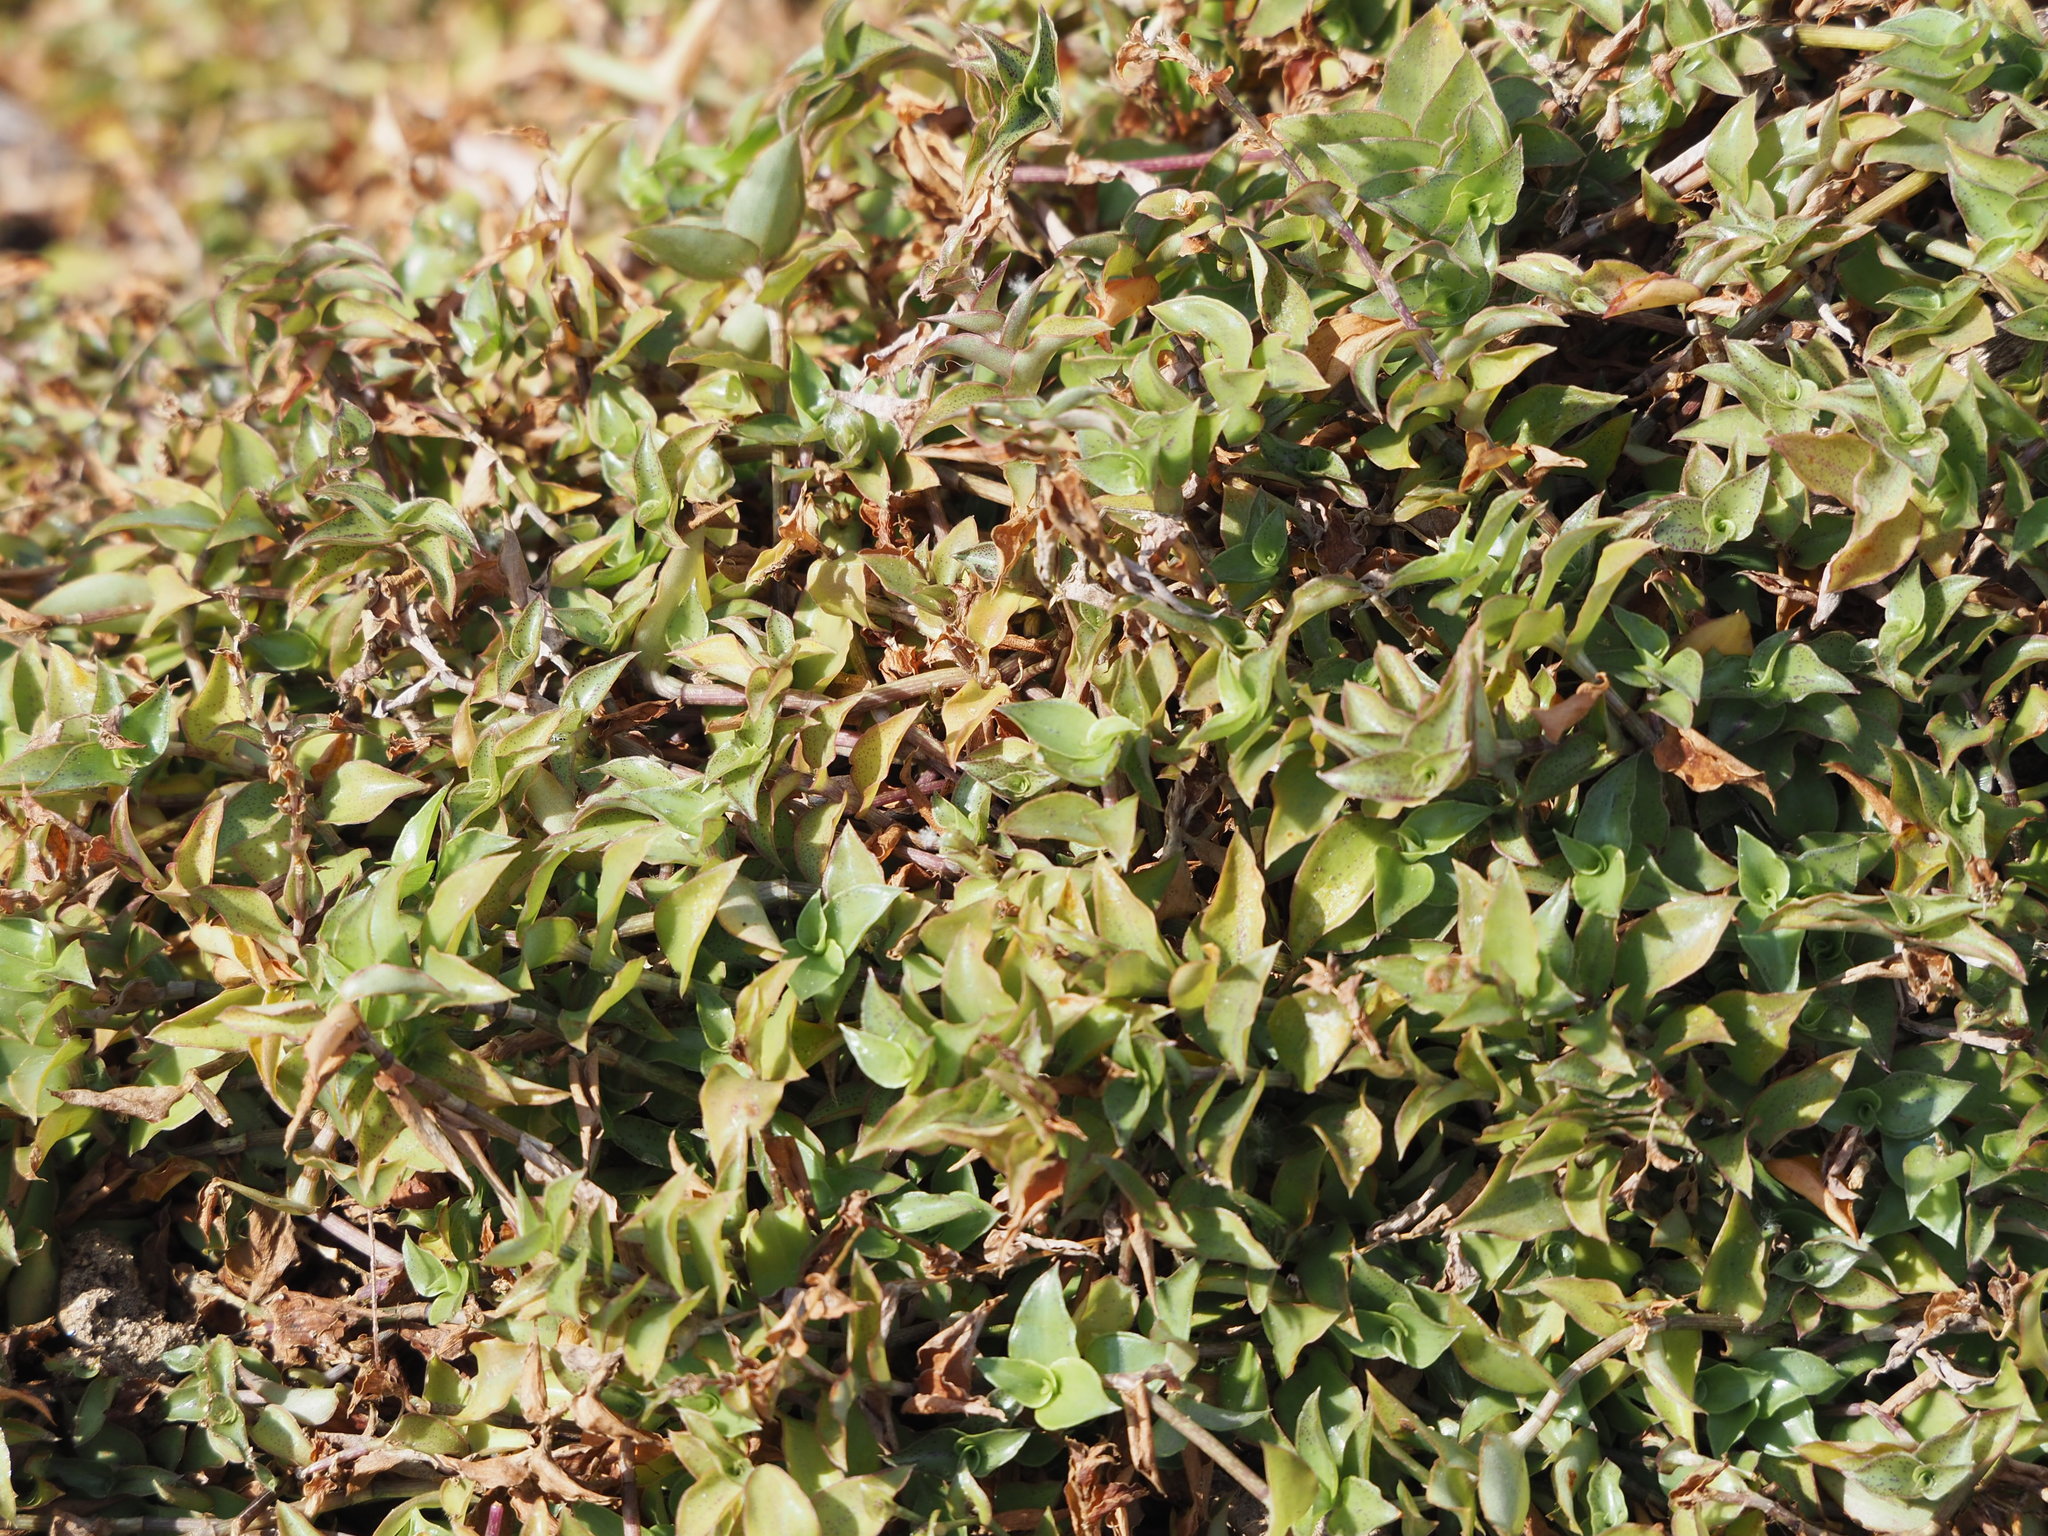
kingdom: Plantae
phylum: Tracheophyta
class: Liliopsida
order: Commelinales
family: Commelinaceae
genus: Callisia
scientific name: Callisia repens
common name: Creeping inchplant
